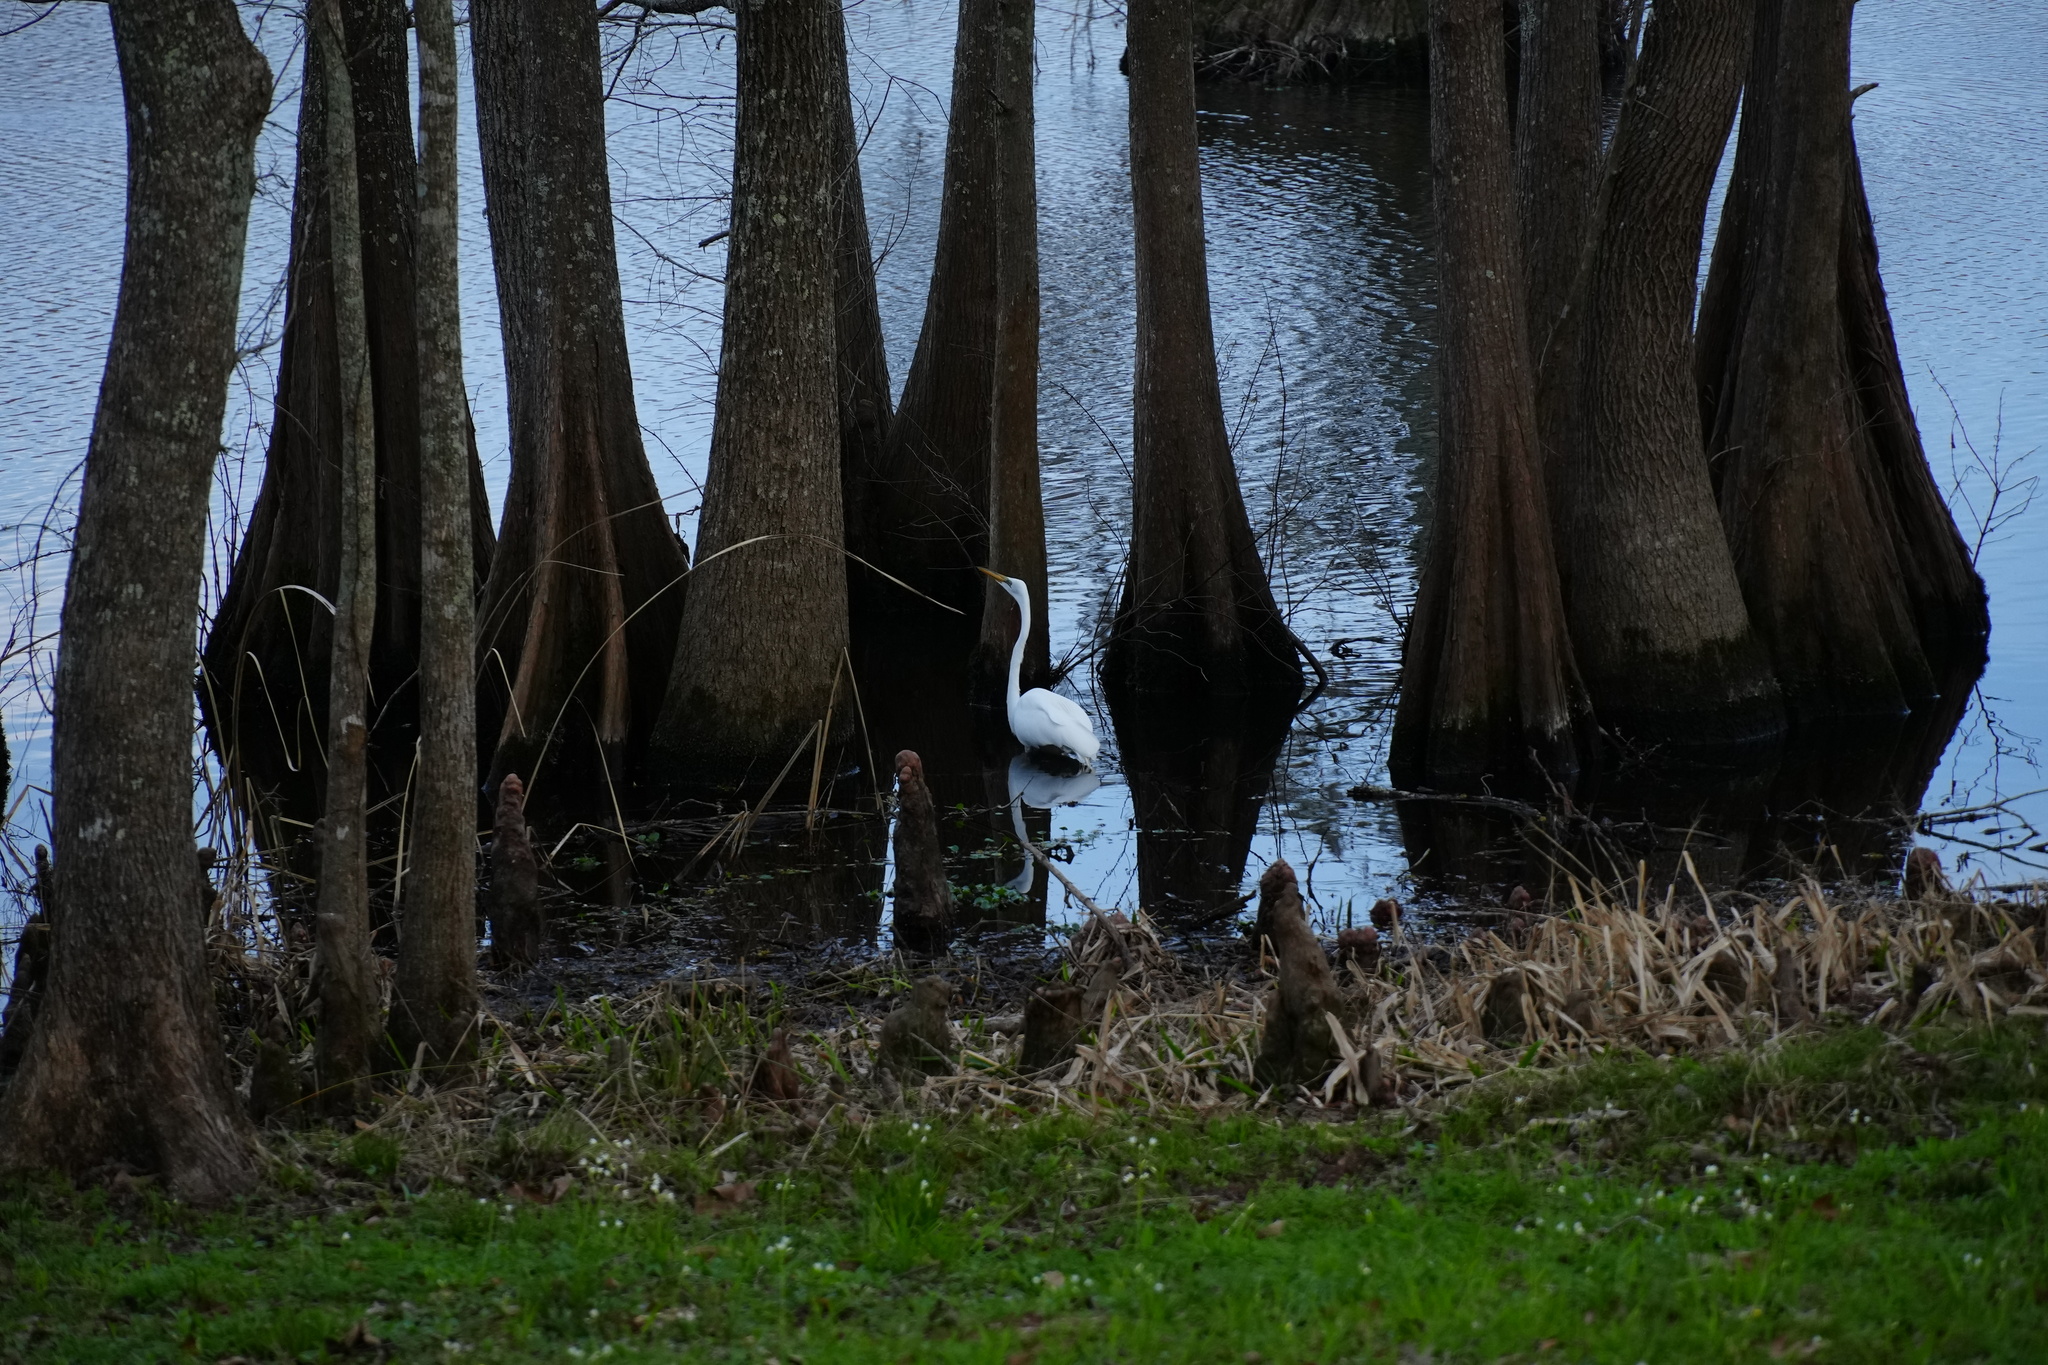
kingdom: Animalia
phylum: Chordata
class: Aves
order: Pelecaniformes
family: Ardeidae
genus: Ardea
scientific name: Ardea alba
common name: Great egret
